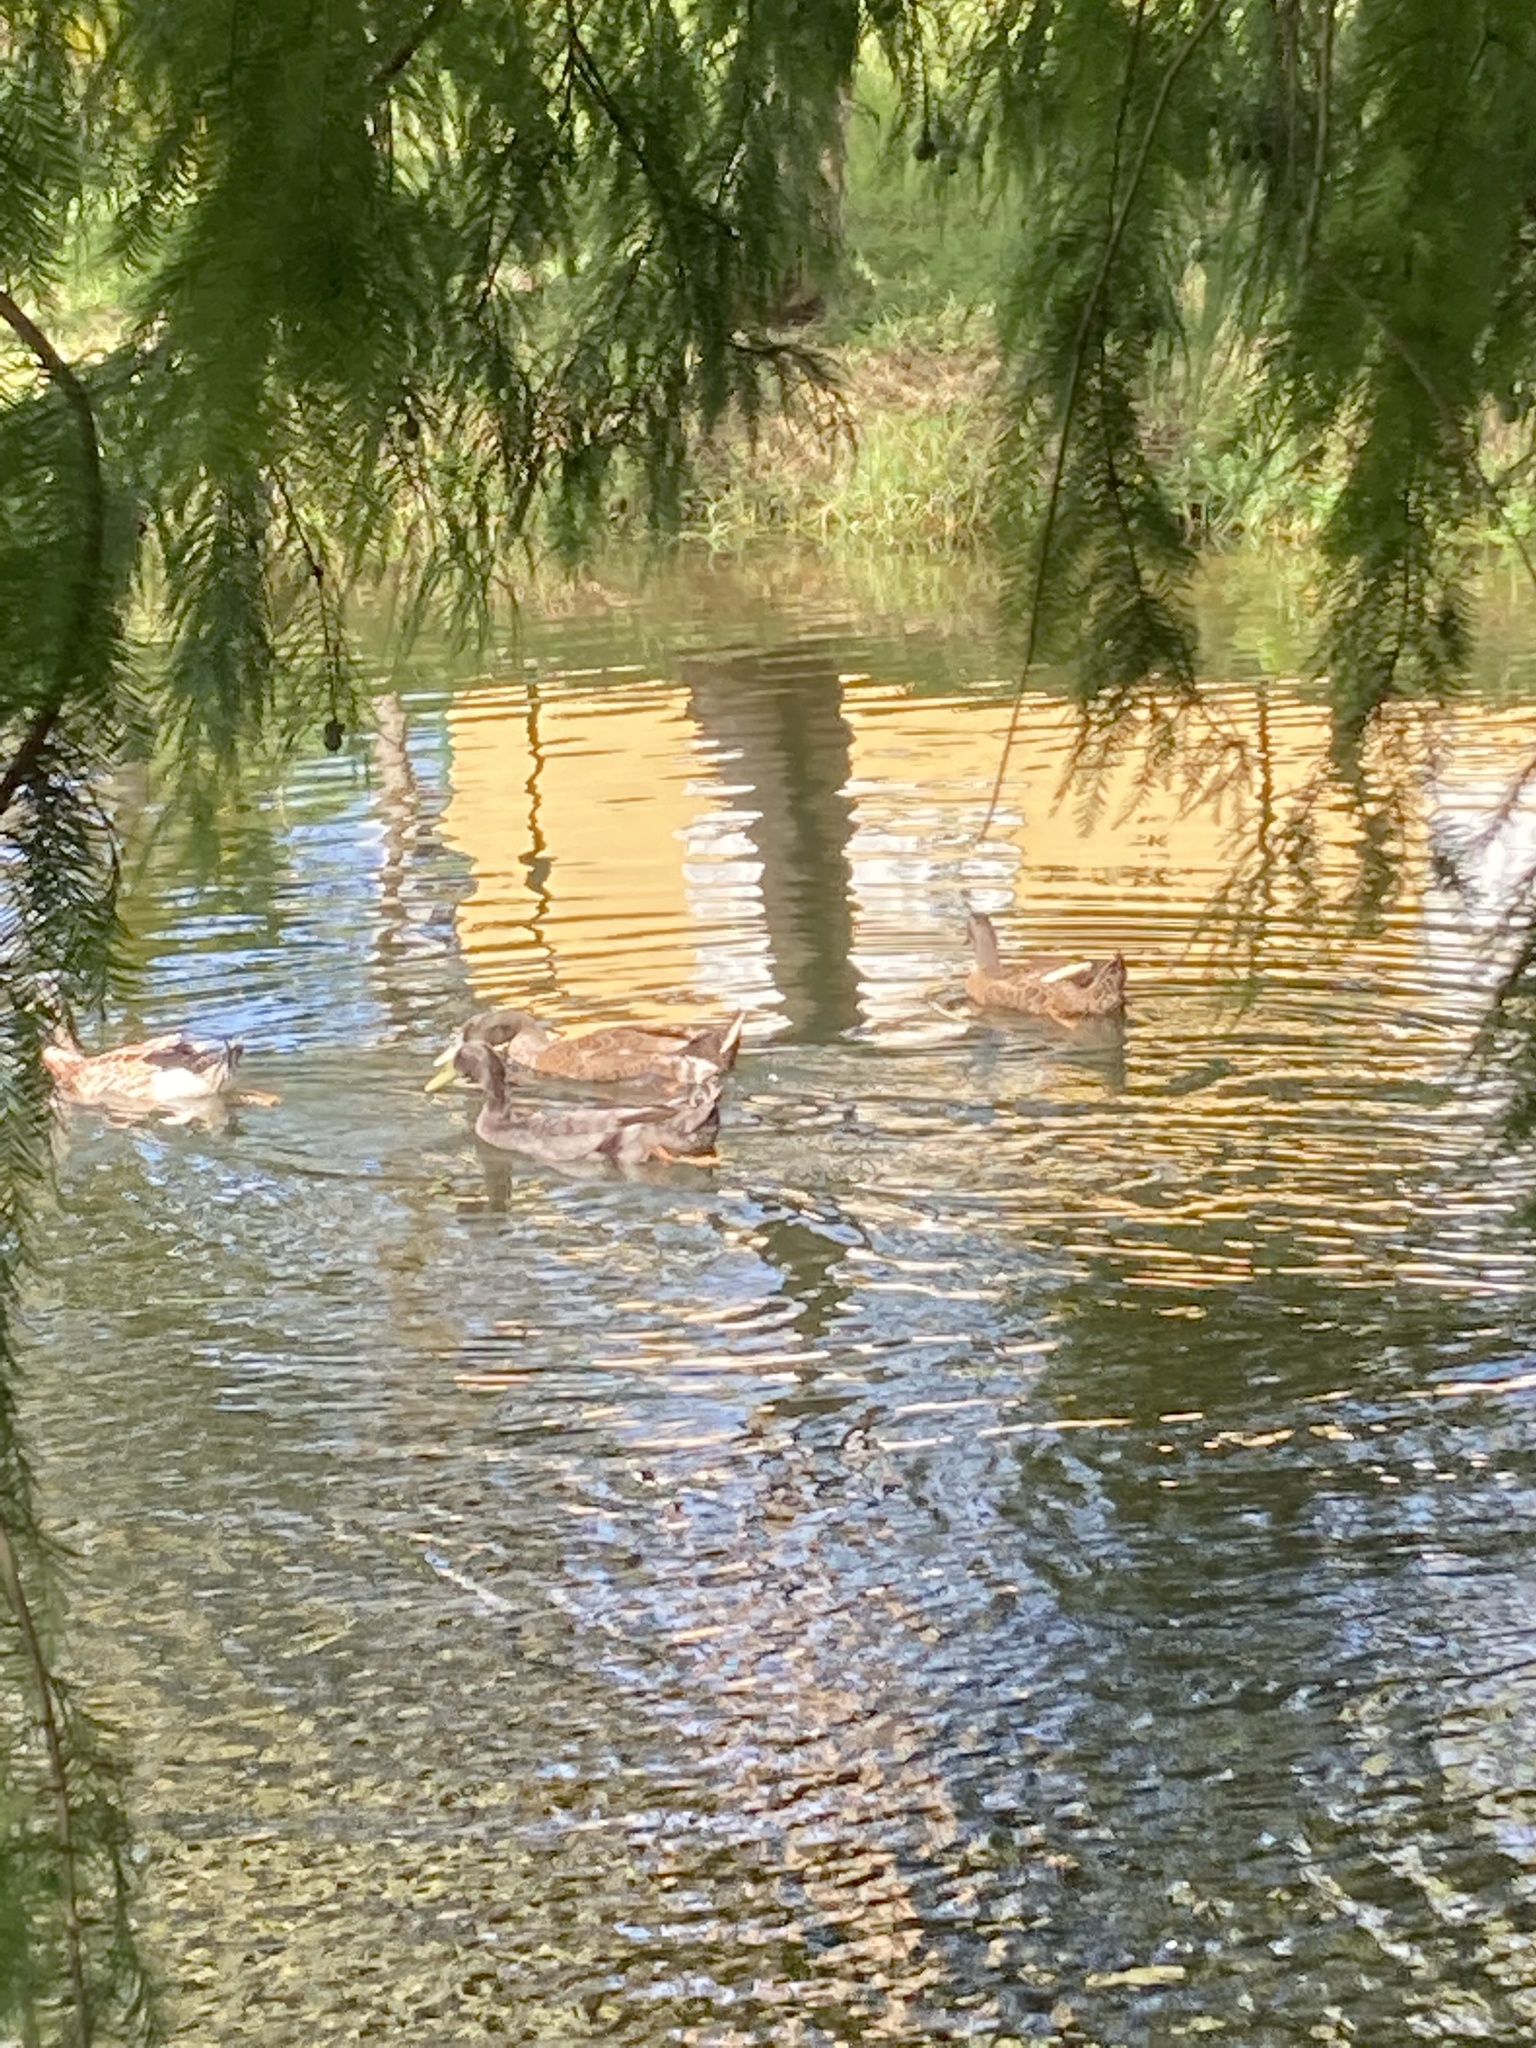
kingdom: Animalia
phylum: Chordata
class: Aves
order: Anseriformes
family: Anatidae
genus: Anas
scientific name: Anas platyrhynchos
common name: Mallard
